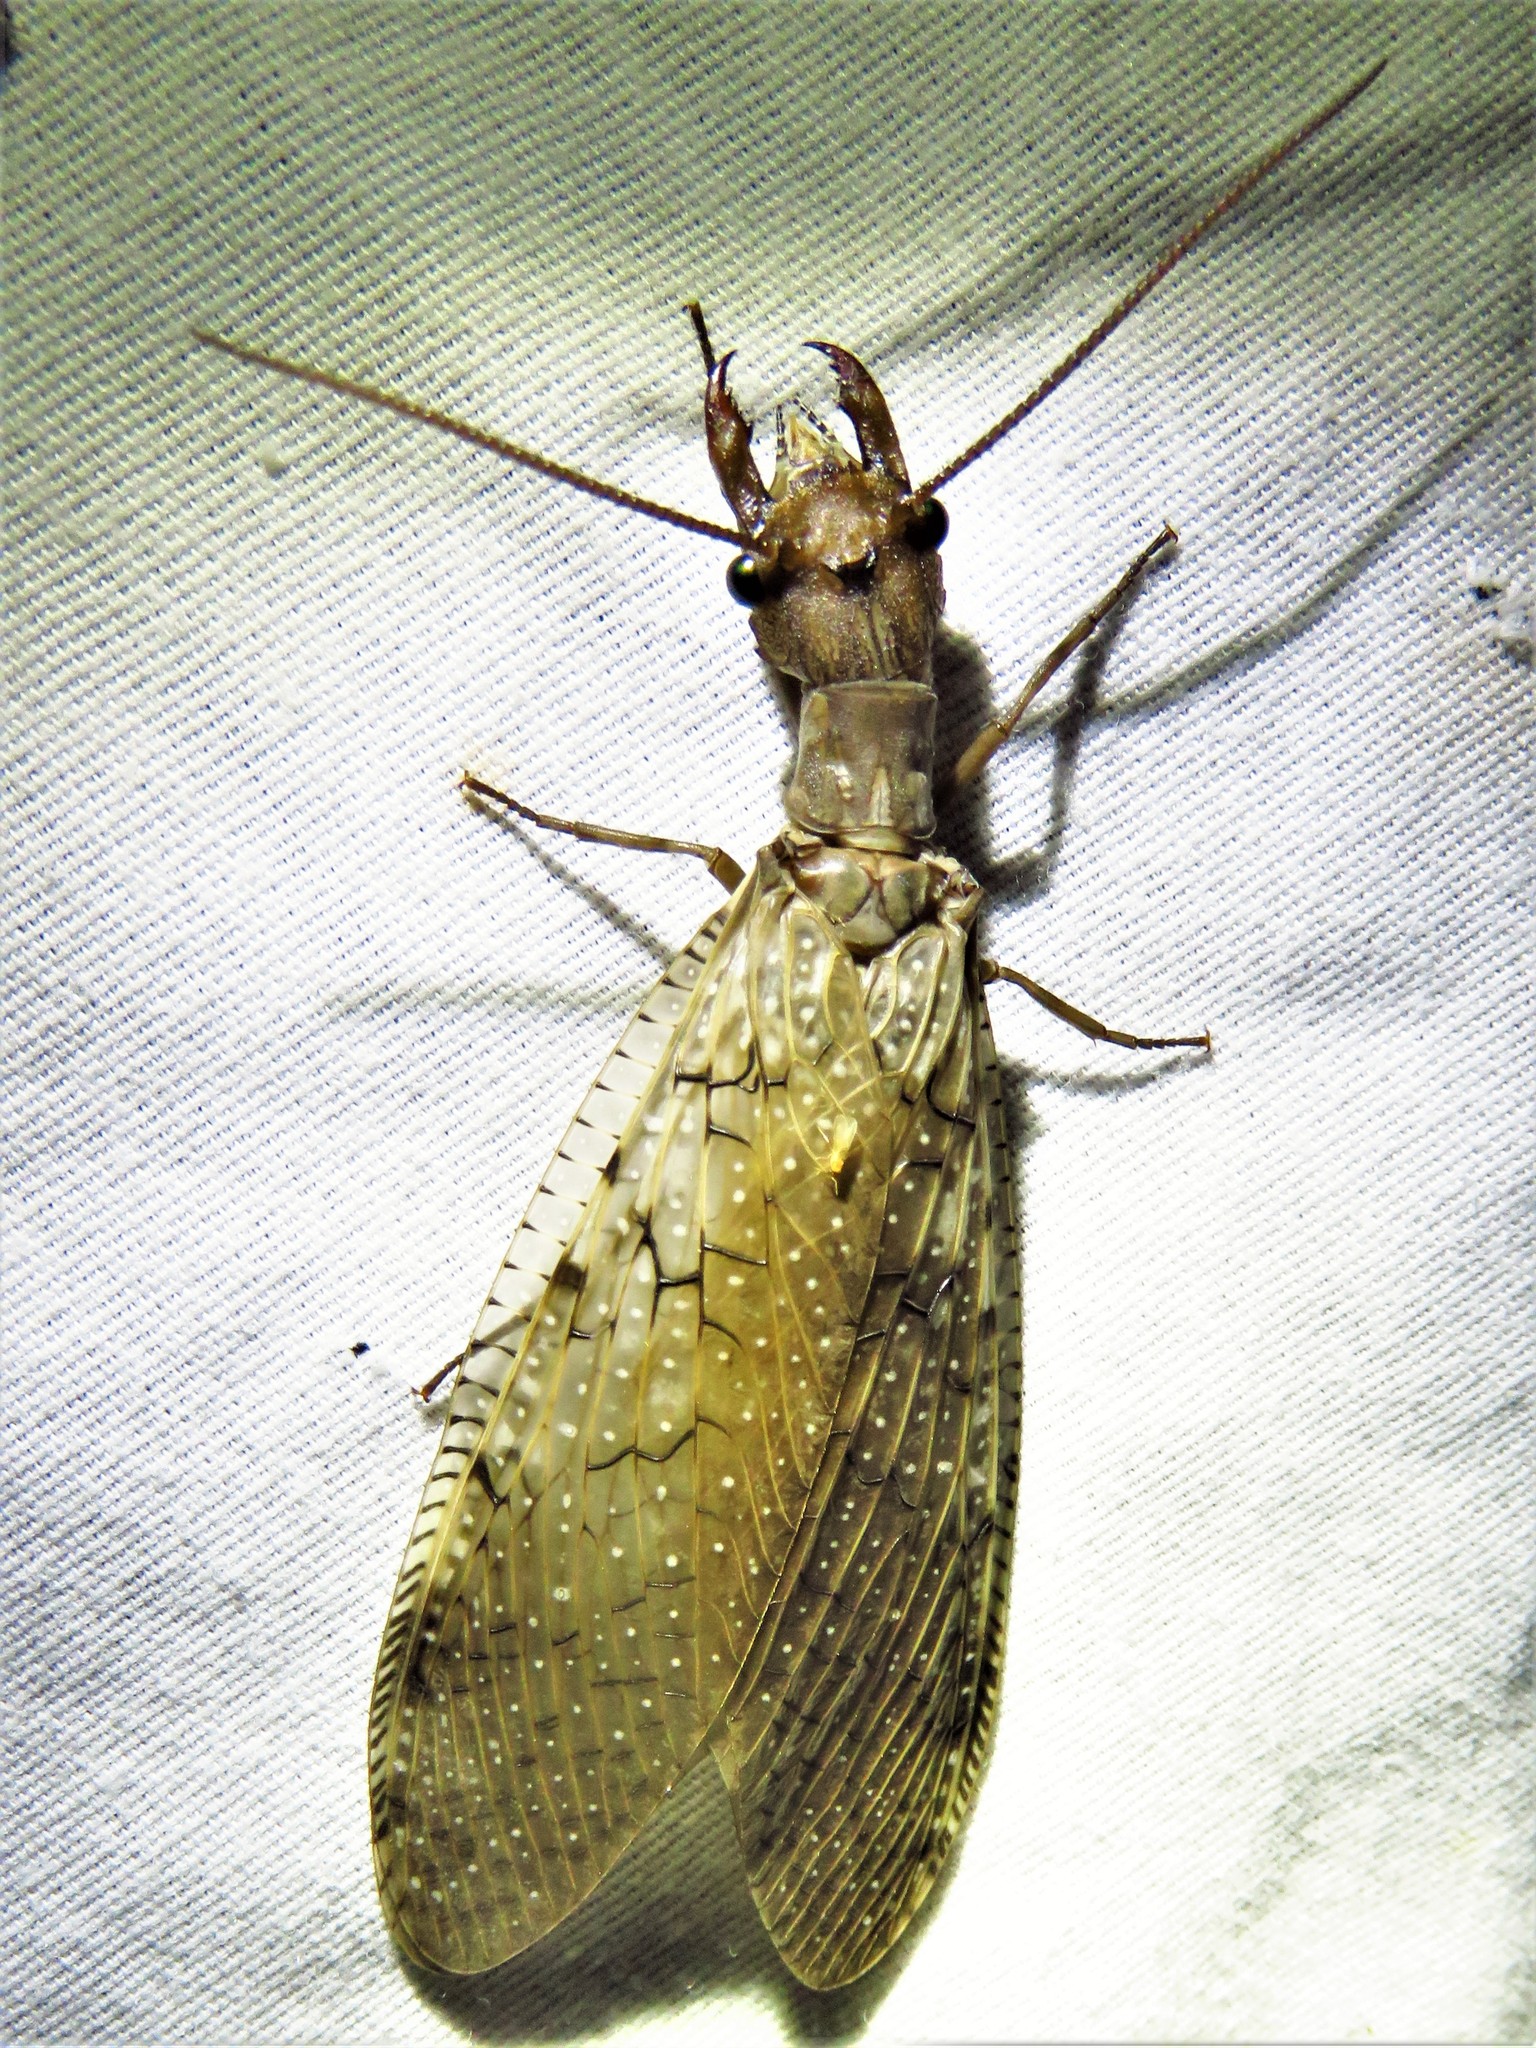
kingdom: Animalia
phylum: Arthropoda
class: Insecta
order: Megaloptera
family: Corydalidae
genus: Corydalus
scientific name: Corydalus cornutus
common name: Dobsonfly
